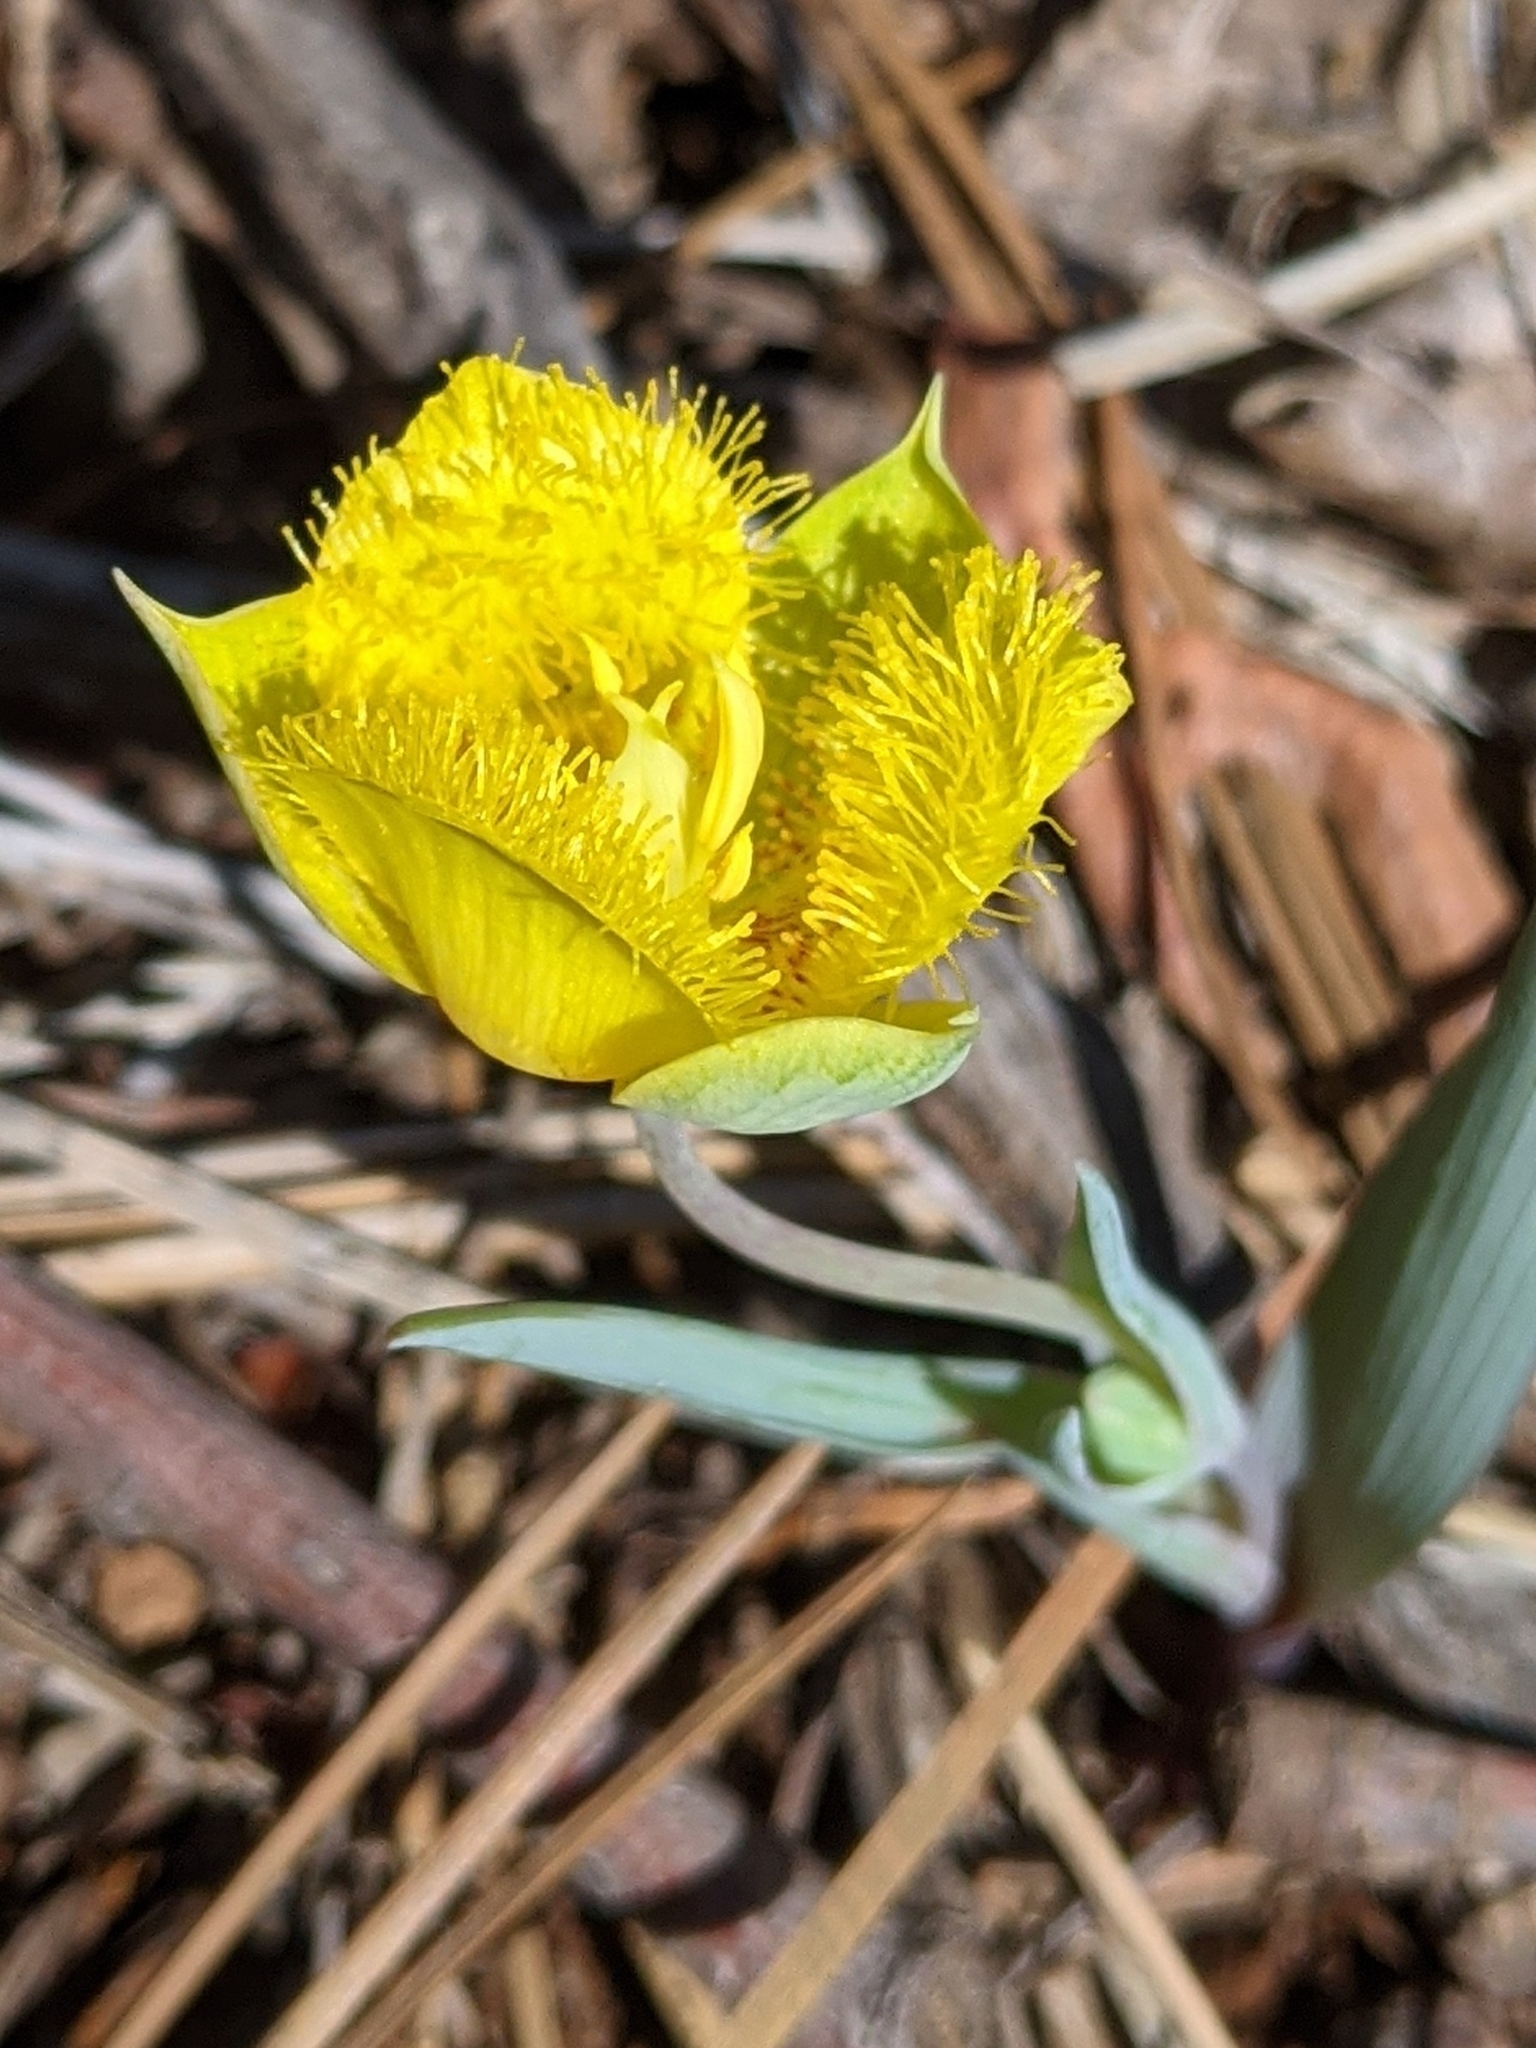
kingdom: Plantae
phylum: Tracheophyta
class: Liliopsida
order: Liliales
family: Liliaceae
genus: Calochortus
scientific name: Calochortus monophyllus
